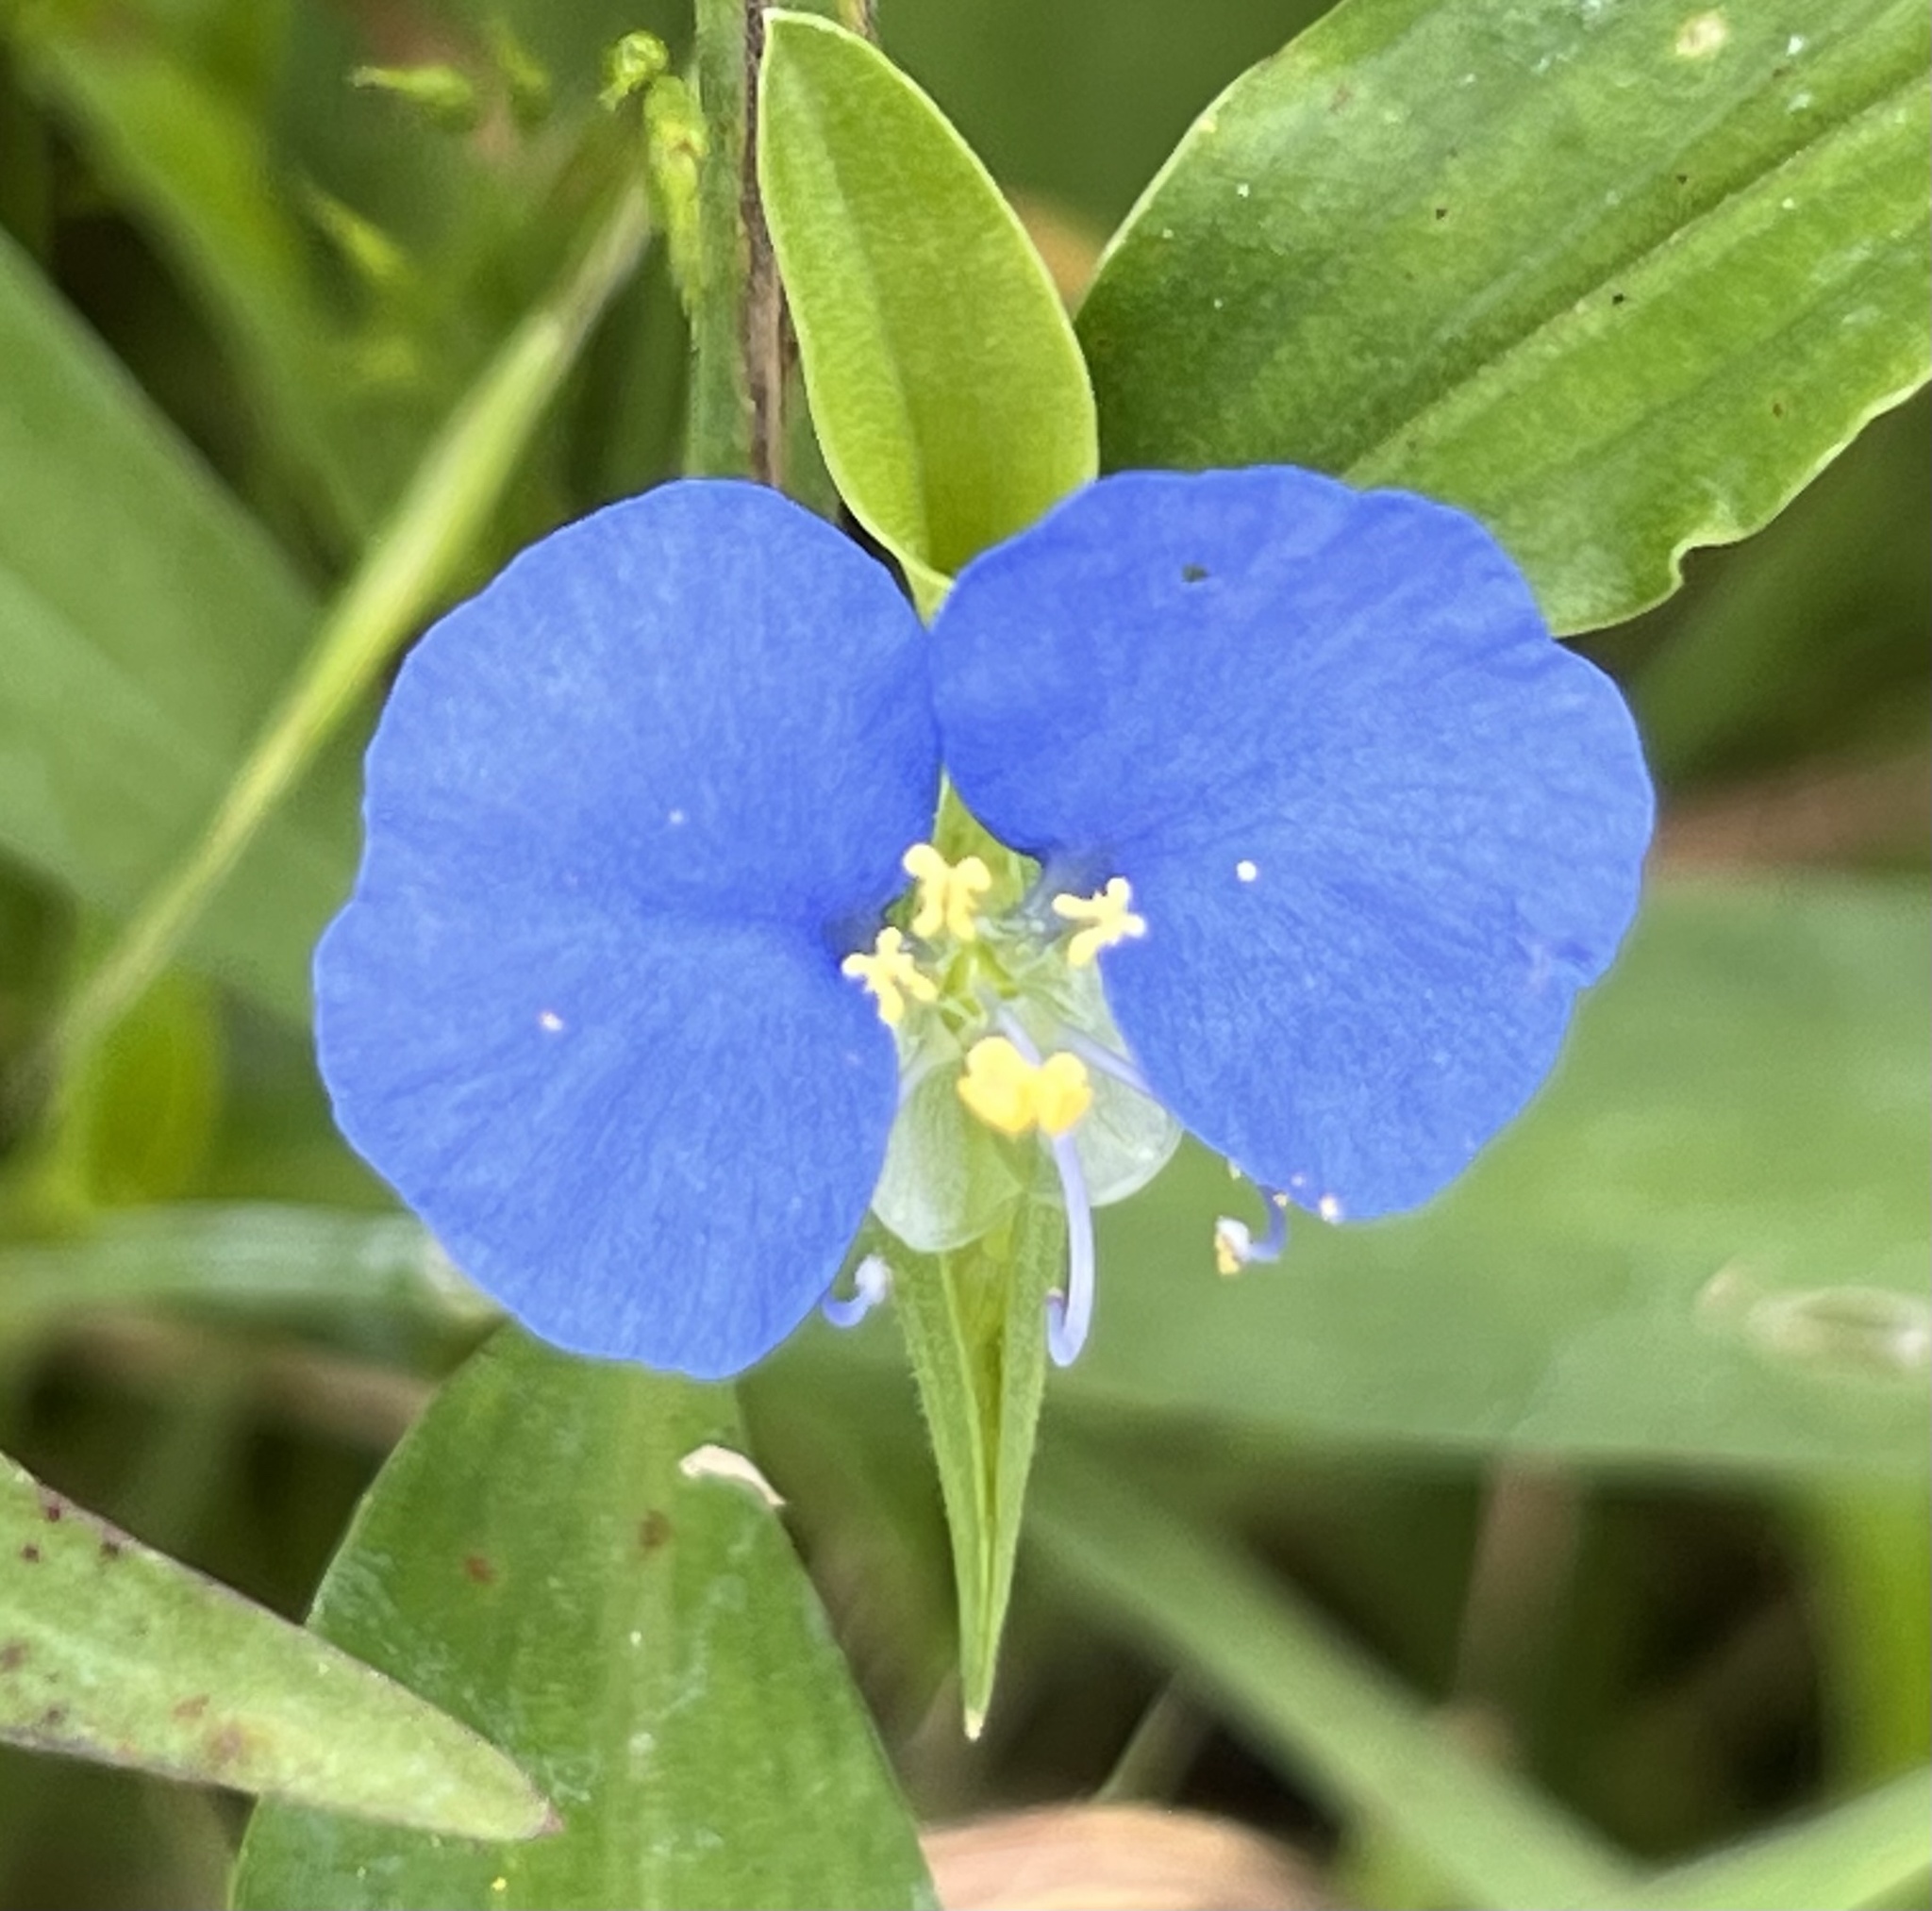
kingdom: Plantae
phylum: Tracheophyta
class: Liliopsida
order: Commelinales
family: Commelinaceae
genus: Commelina
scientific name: Commelina erecta
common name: Blousel blommetjie
